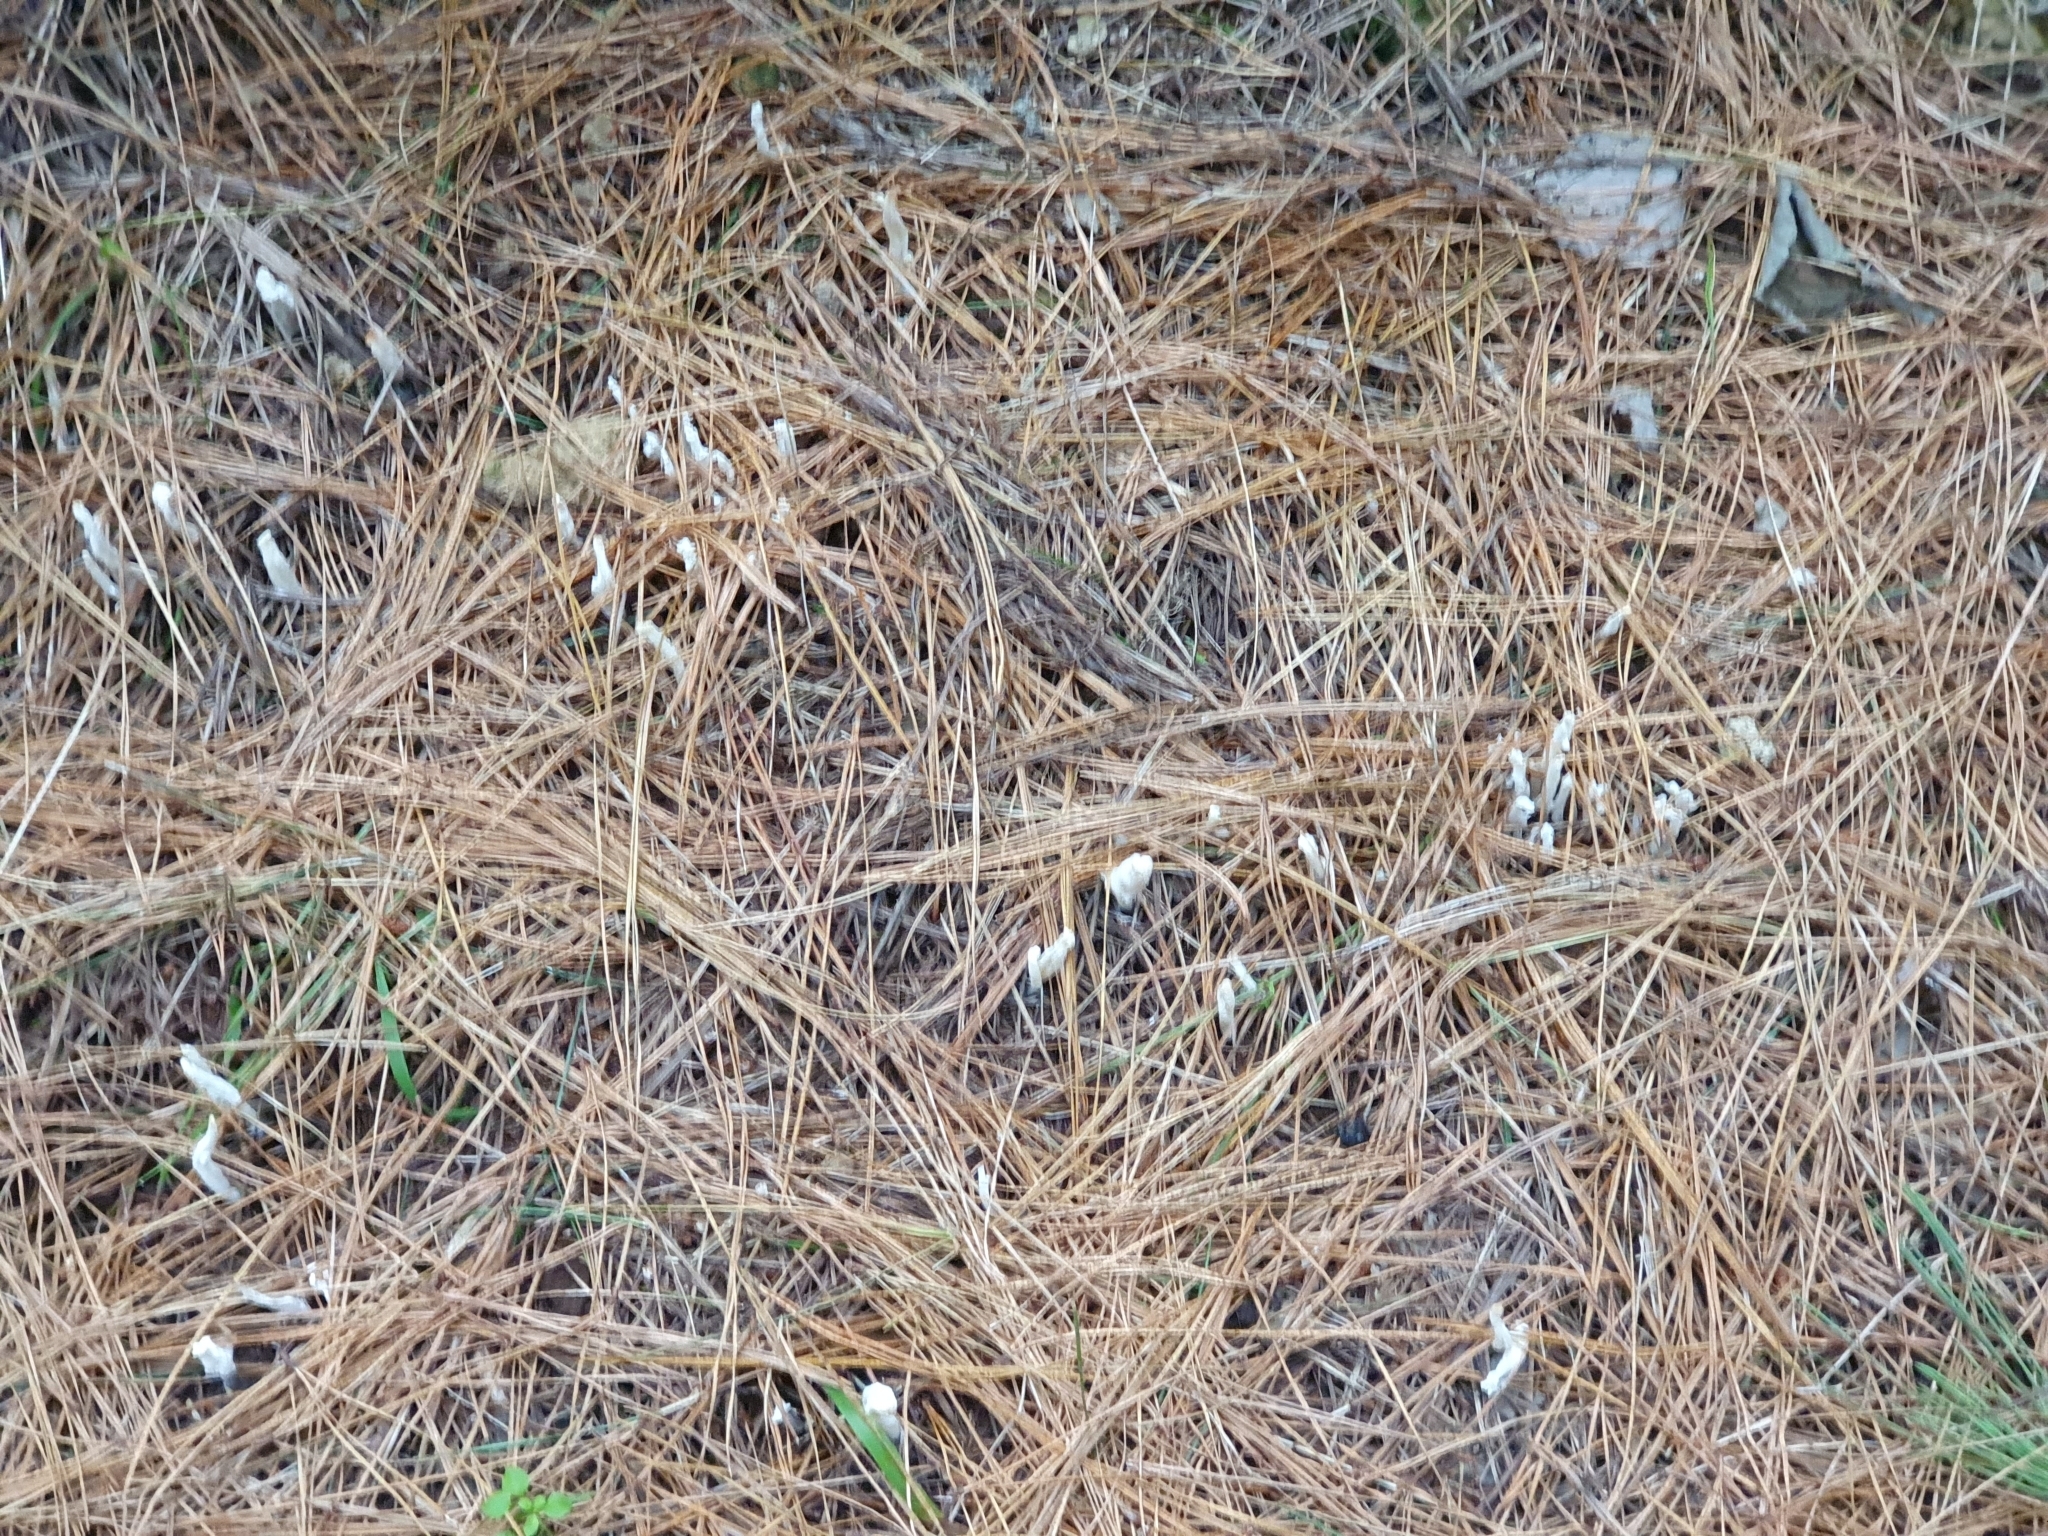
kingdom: Fungi
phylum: Basidiomycota
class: Agaricomycetes
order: Cantharellales
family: Hydnaceae
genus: Clavulina
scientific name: Clavulina rugosa
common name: Wrinkled club
